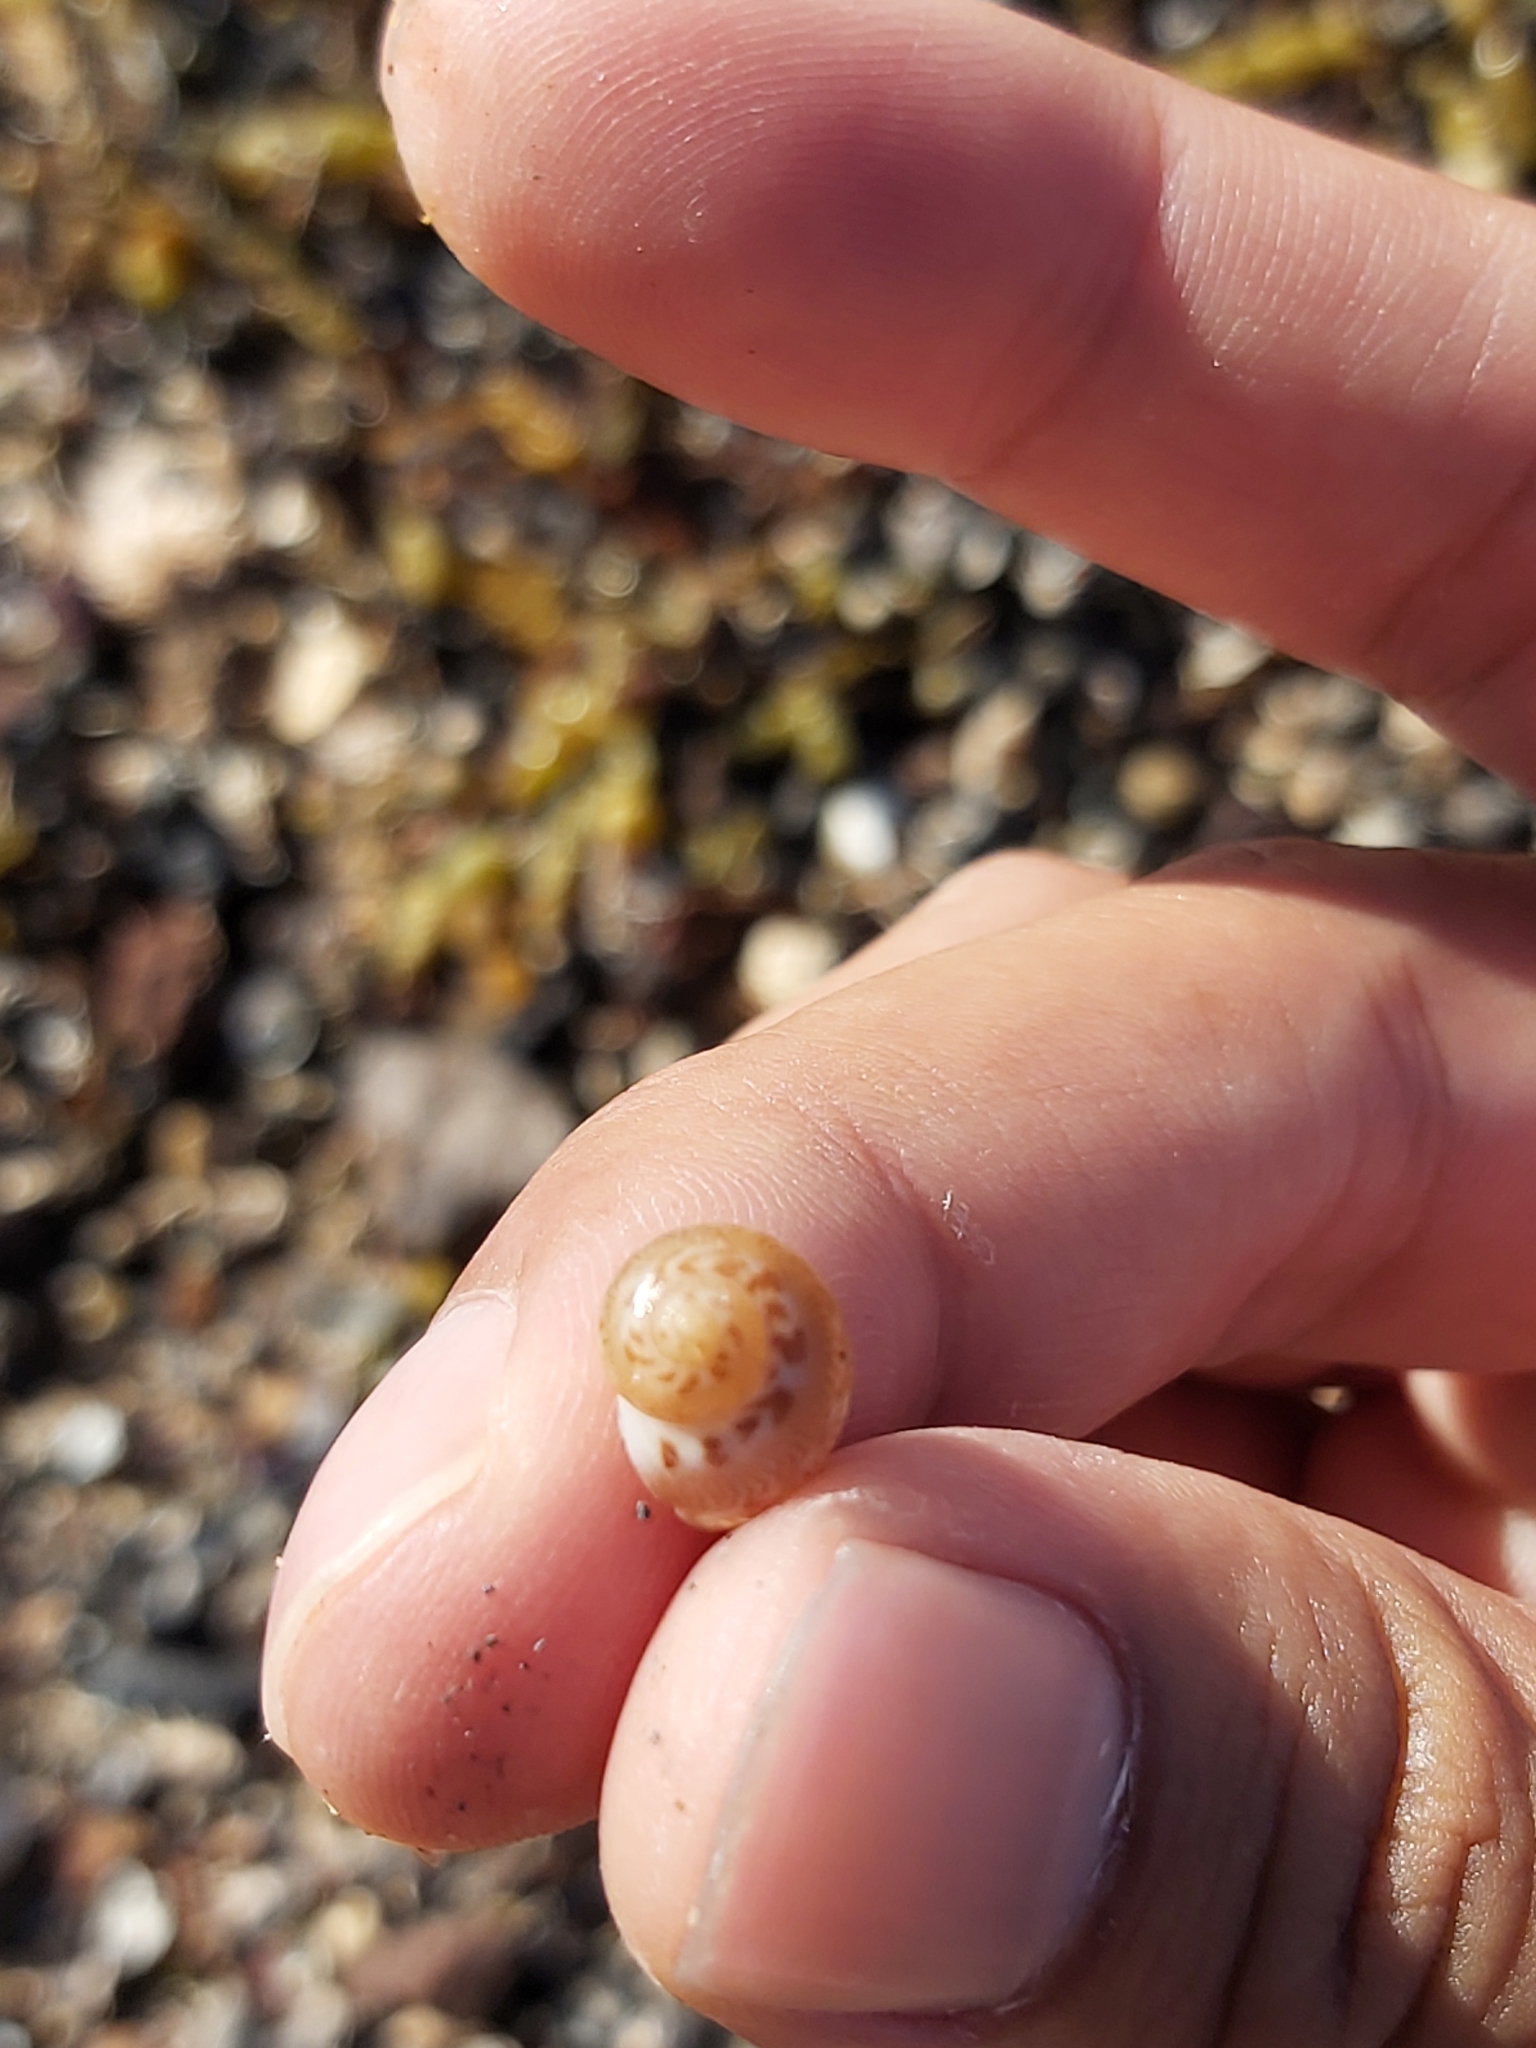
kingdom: Animalia
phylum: Mollusca
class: Gastropoda
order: Littorinimorpha
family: Naticidae
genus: Tanea
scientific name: Tanea sagittata
